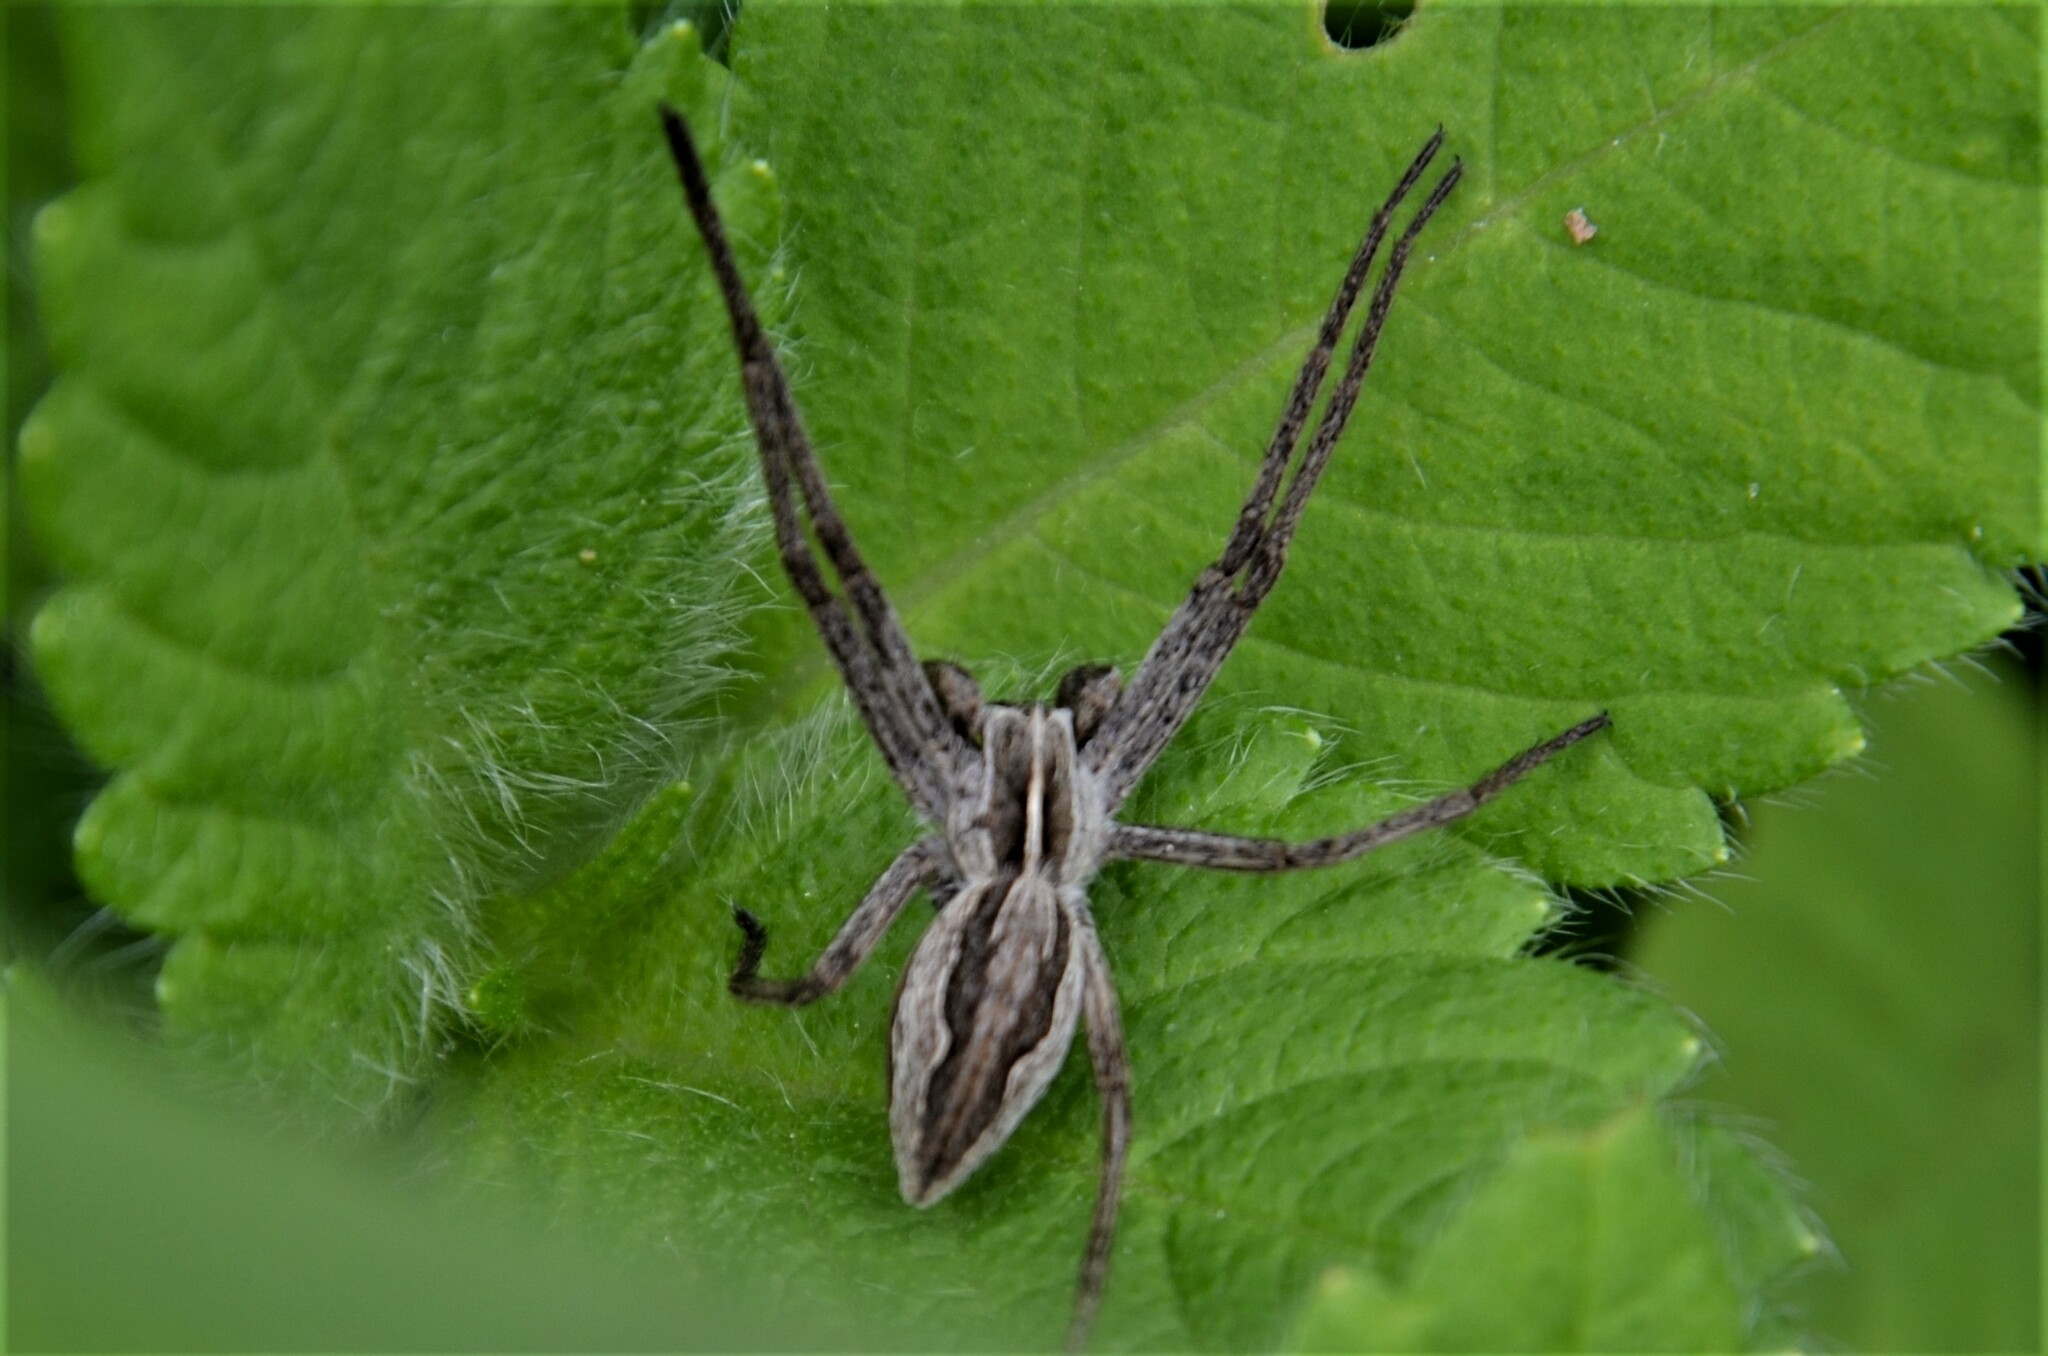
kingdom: Animalia
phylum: Arthropoda
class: Arachnida
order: Araneae
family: Pisauridae
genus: Pisaura
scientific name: Pisaura mirabilis
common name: Tent spider
